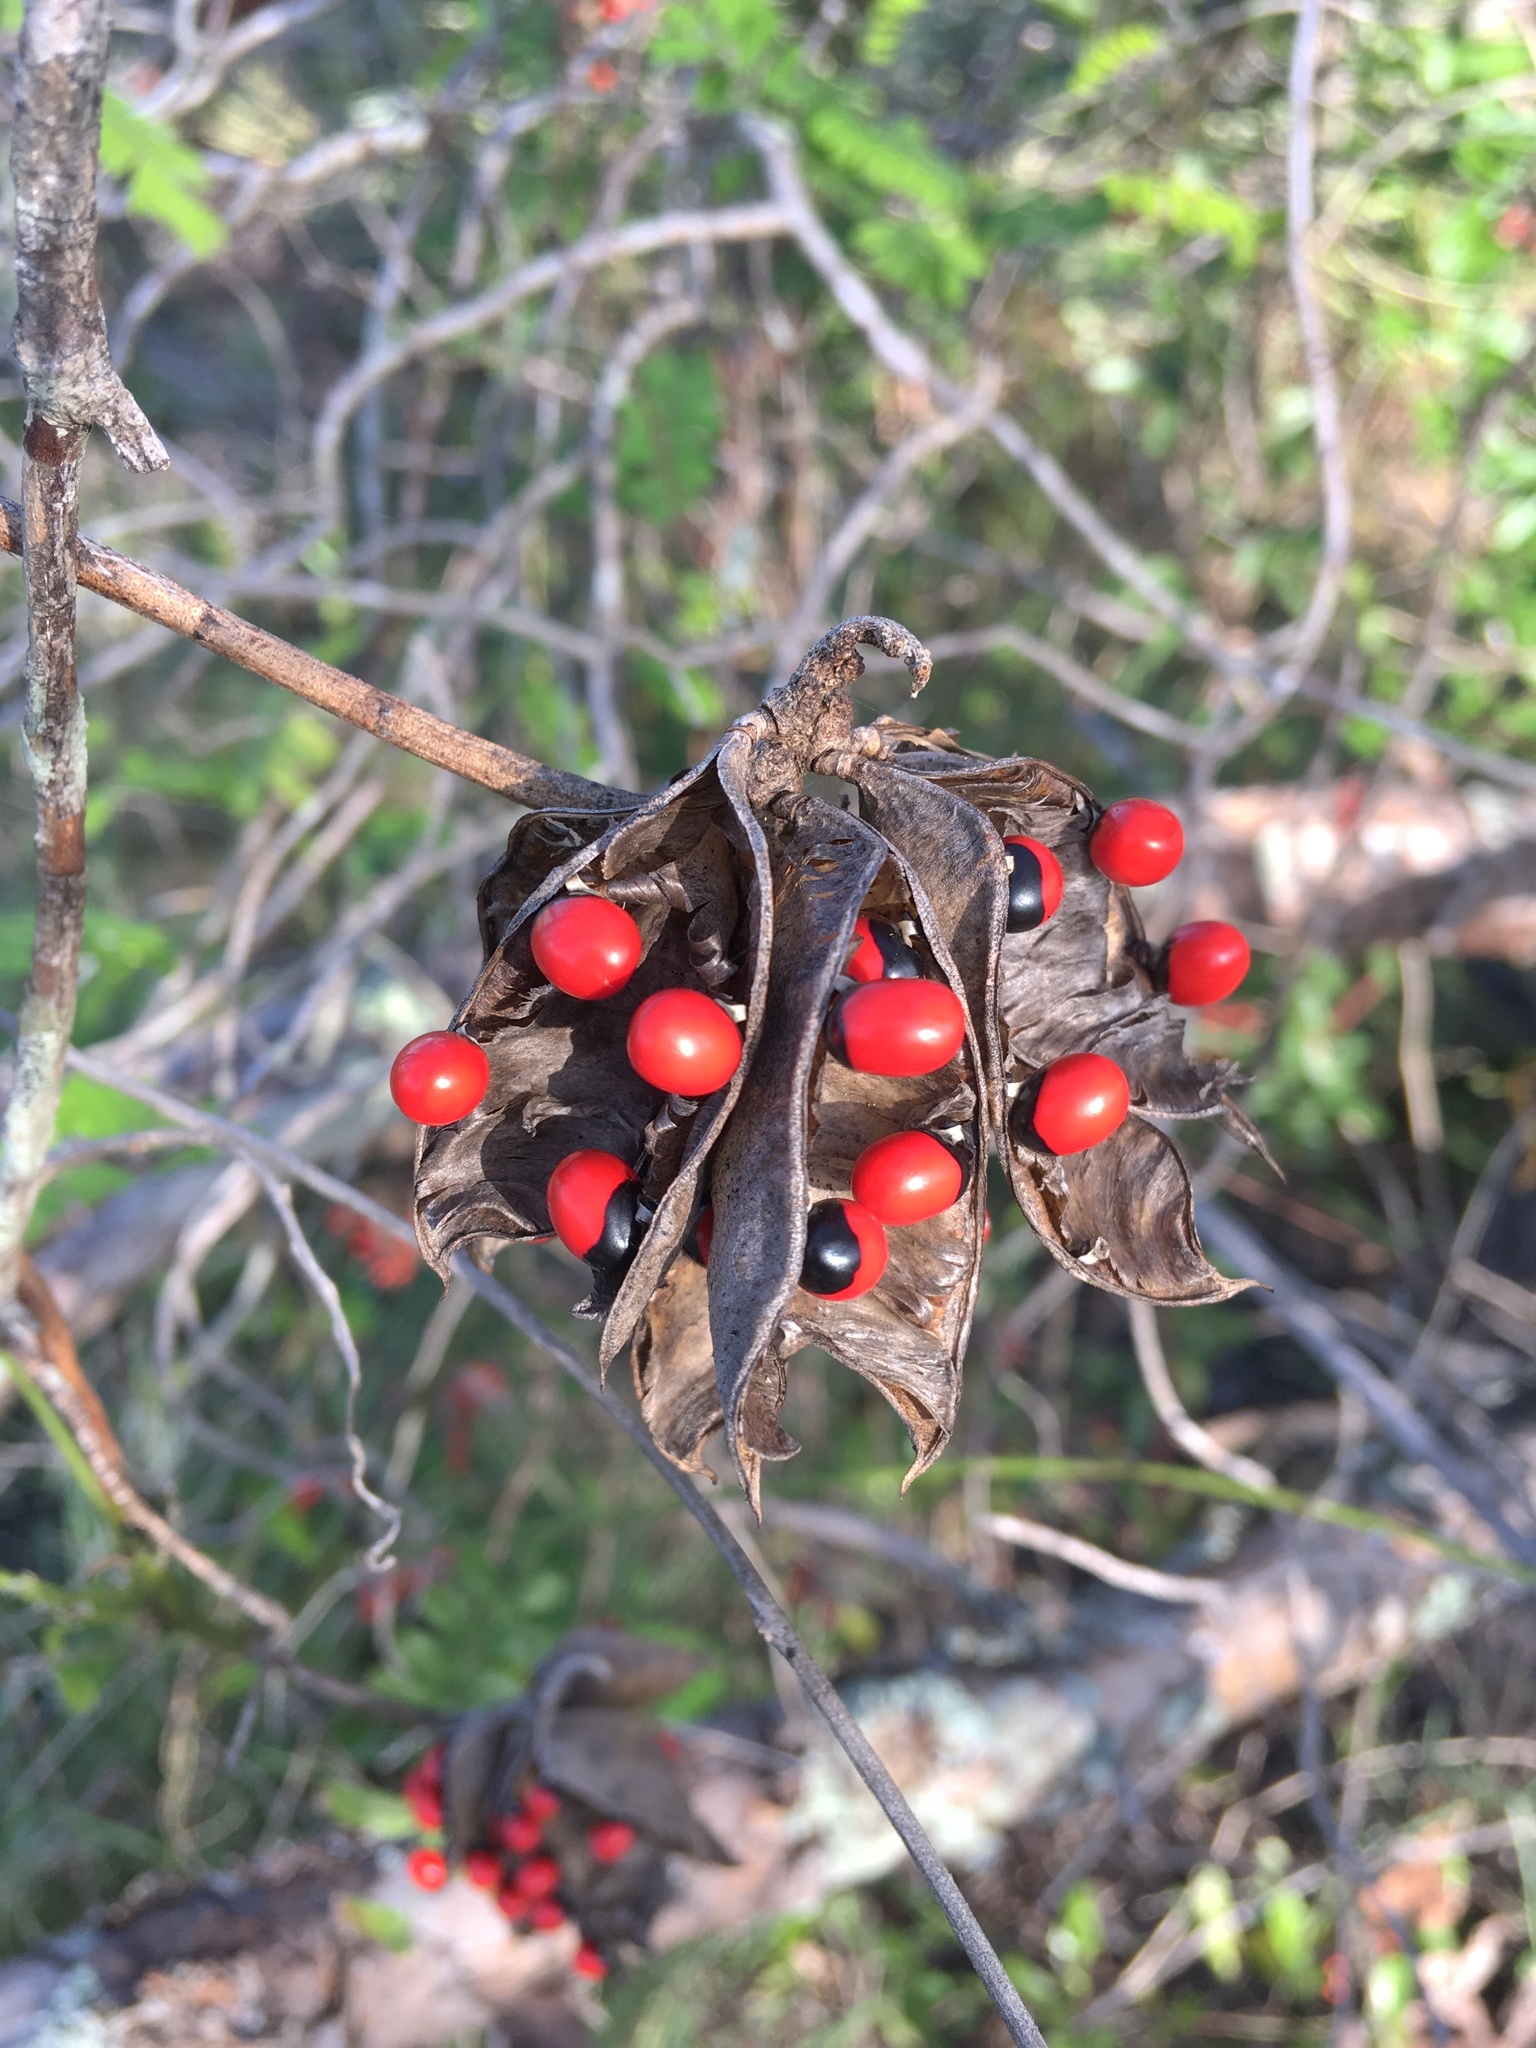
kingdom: Plantae
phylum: Tracheophyta
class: Magnoliopsida
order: Fabales
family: Fabaceae
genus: Abrus
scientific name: Abrus precatorius
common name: Rosarypea
